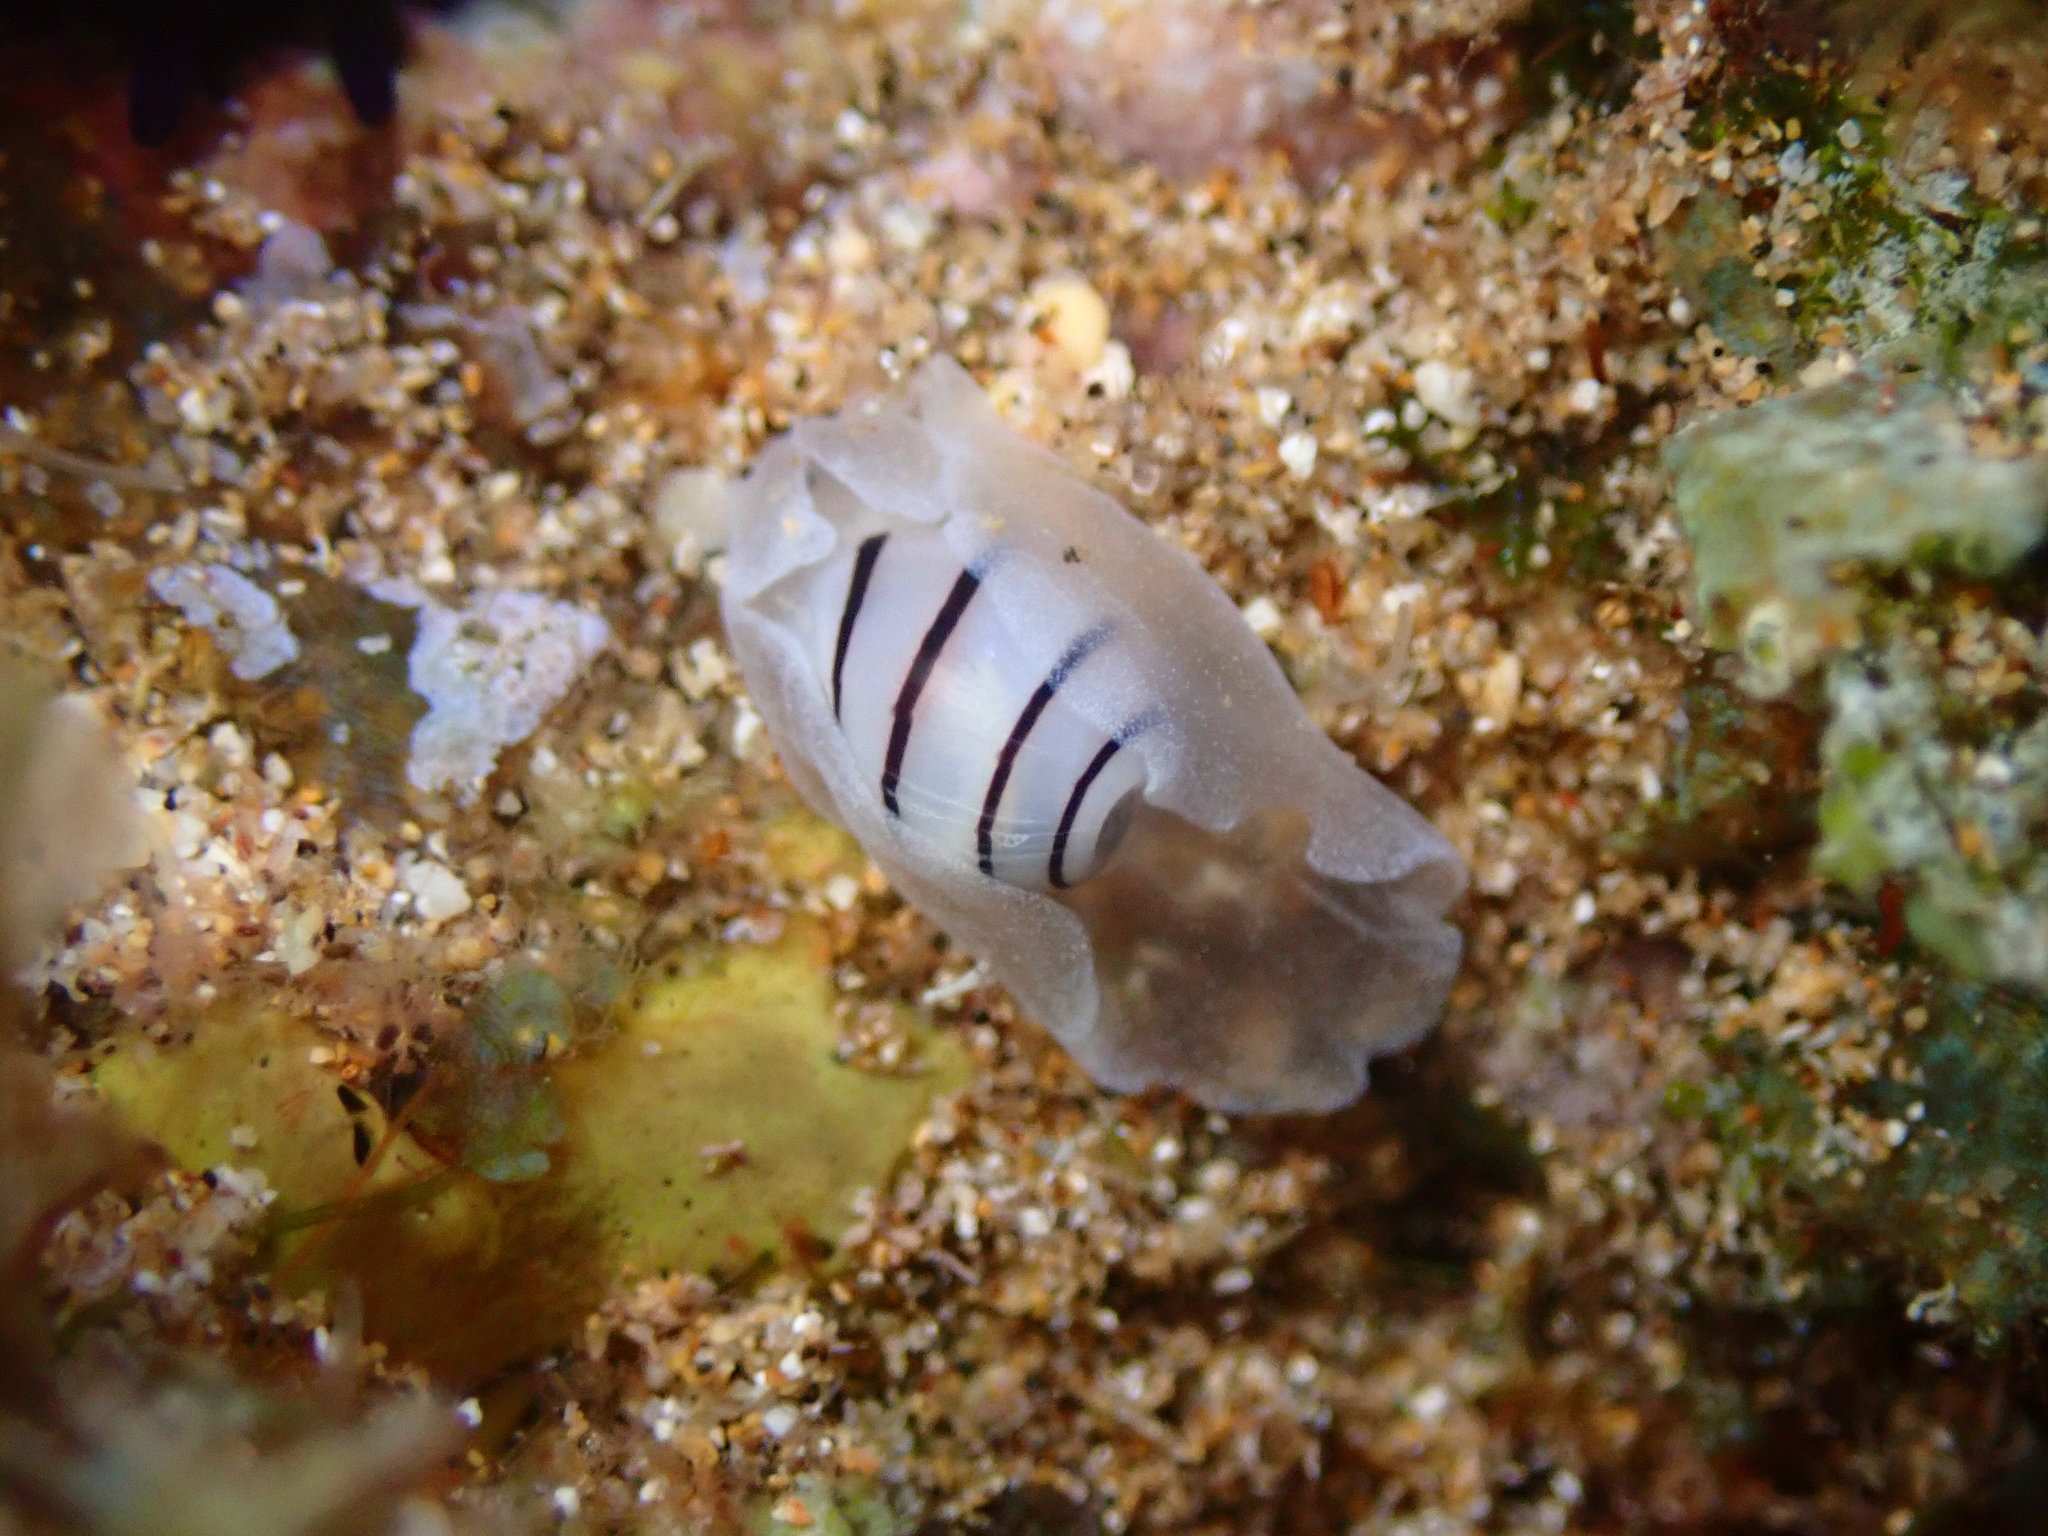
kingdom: Animalia
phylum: Mollusca
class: Gastropoda
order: Cephalaspidea
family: Aplustridae
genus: Aplustrum
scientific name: Aplustrum amplustre
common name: Royal paperbubble
